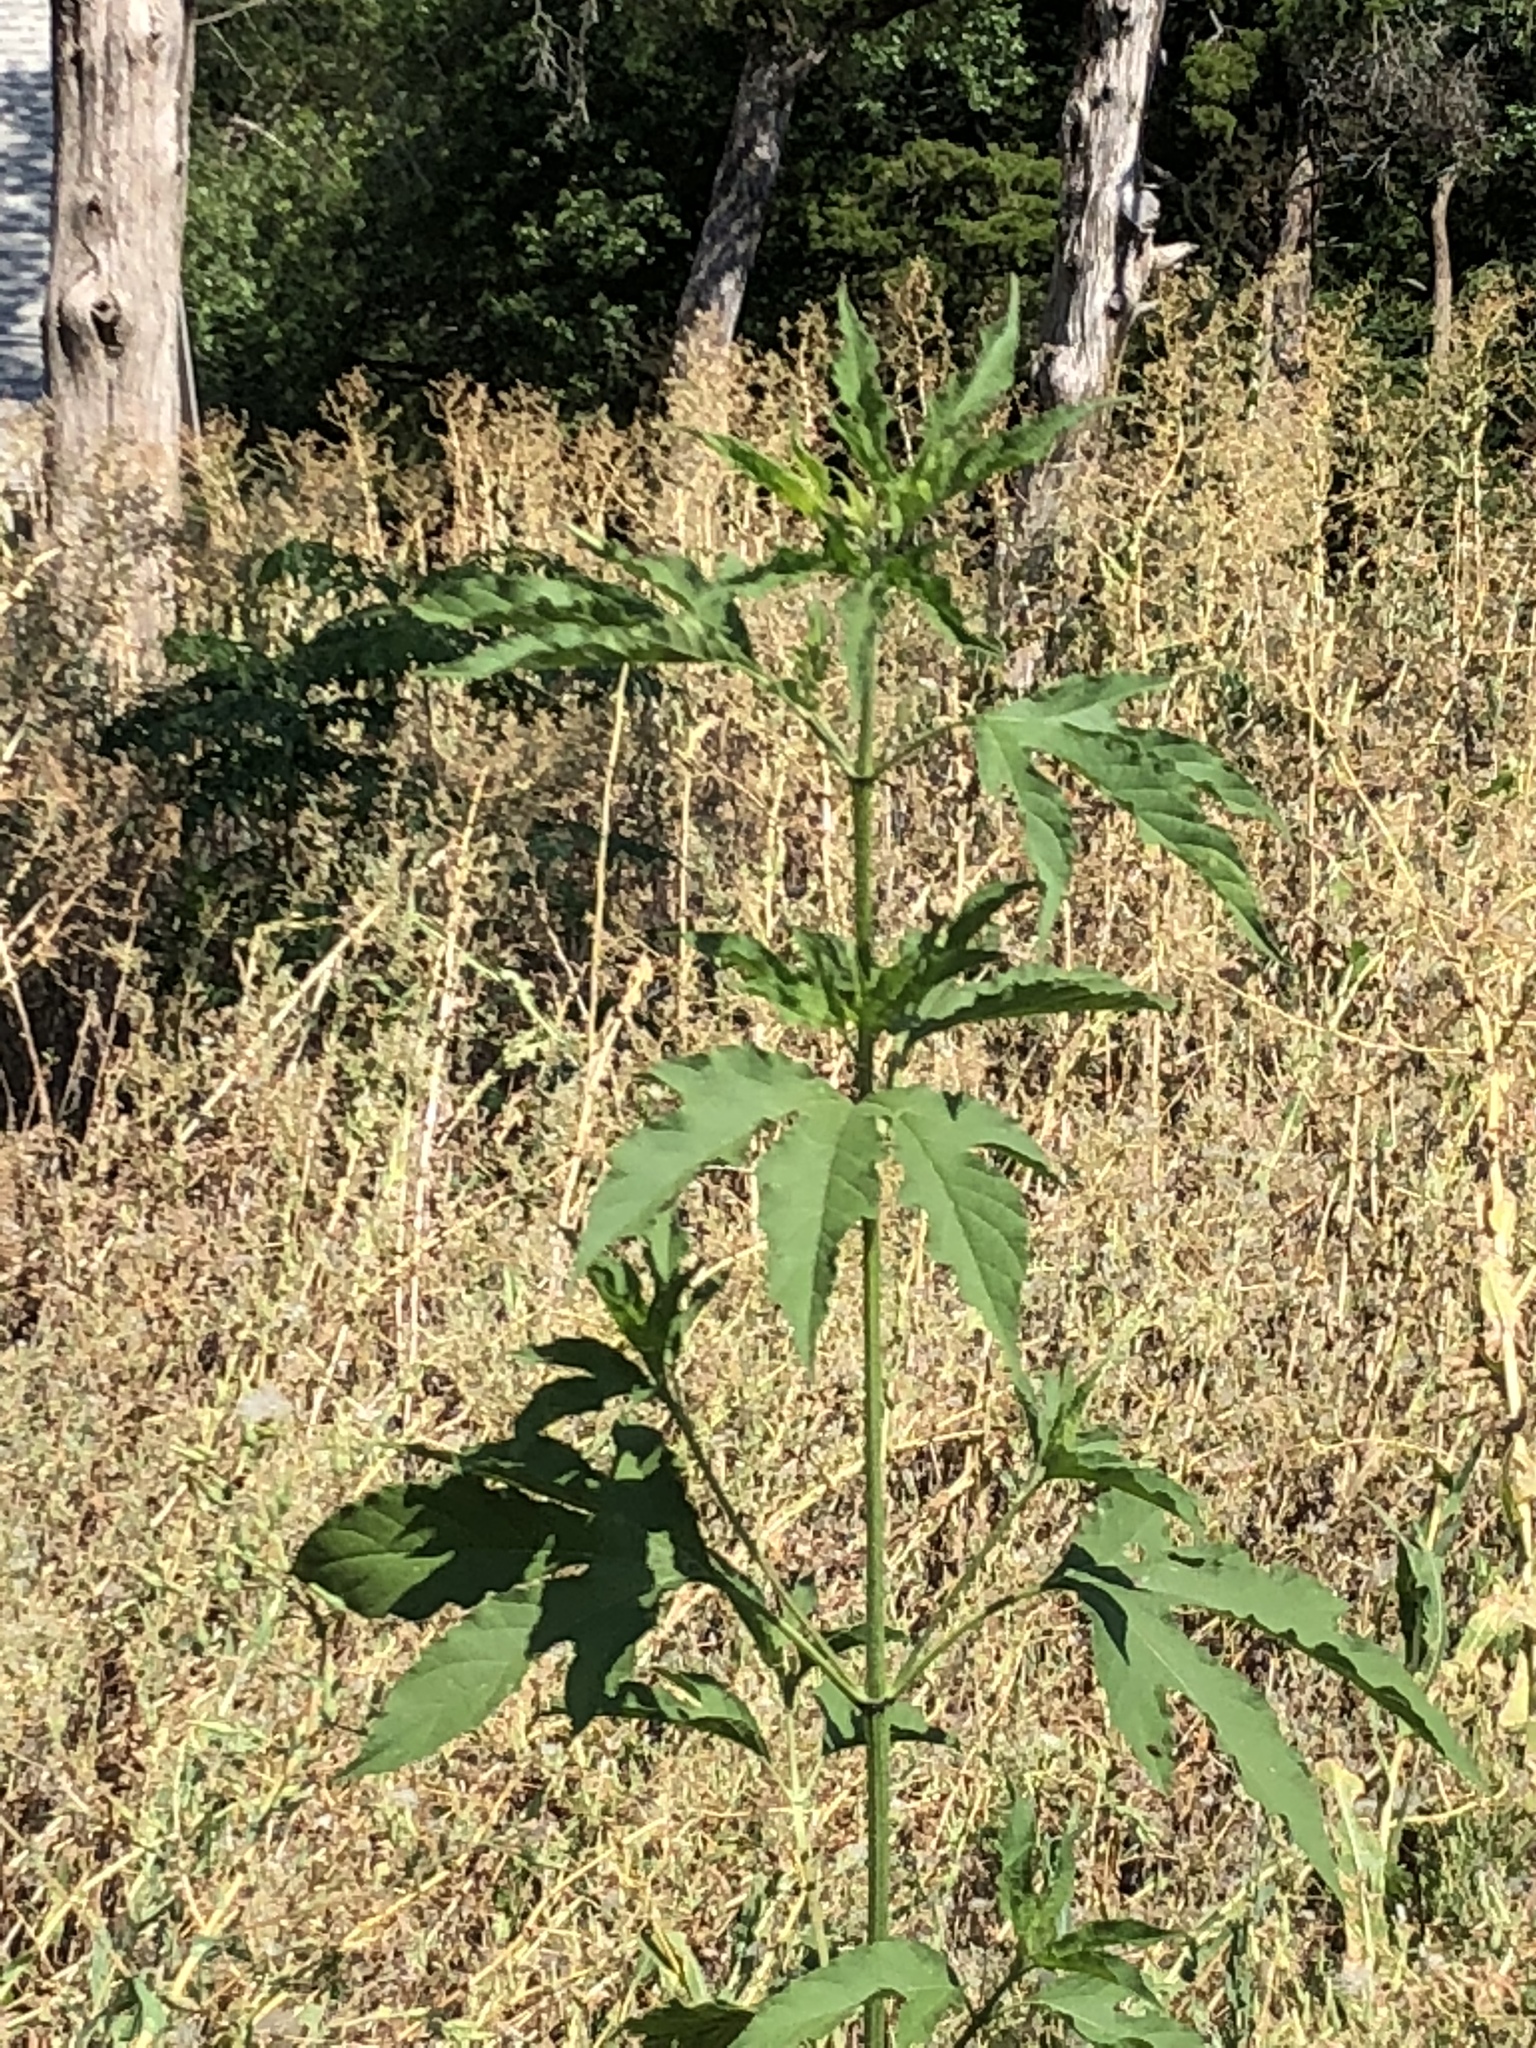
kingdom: Plantae
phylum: Tracheophyta
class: Magnoliopsida
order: Asterales
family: Asteraceae
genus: Ambrosia
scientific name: Ambrosia trifida
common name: Giant ragweed
